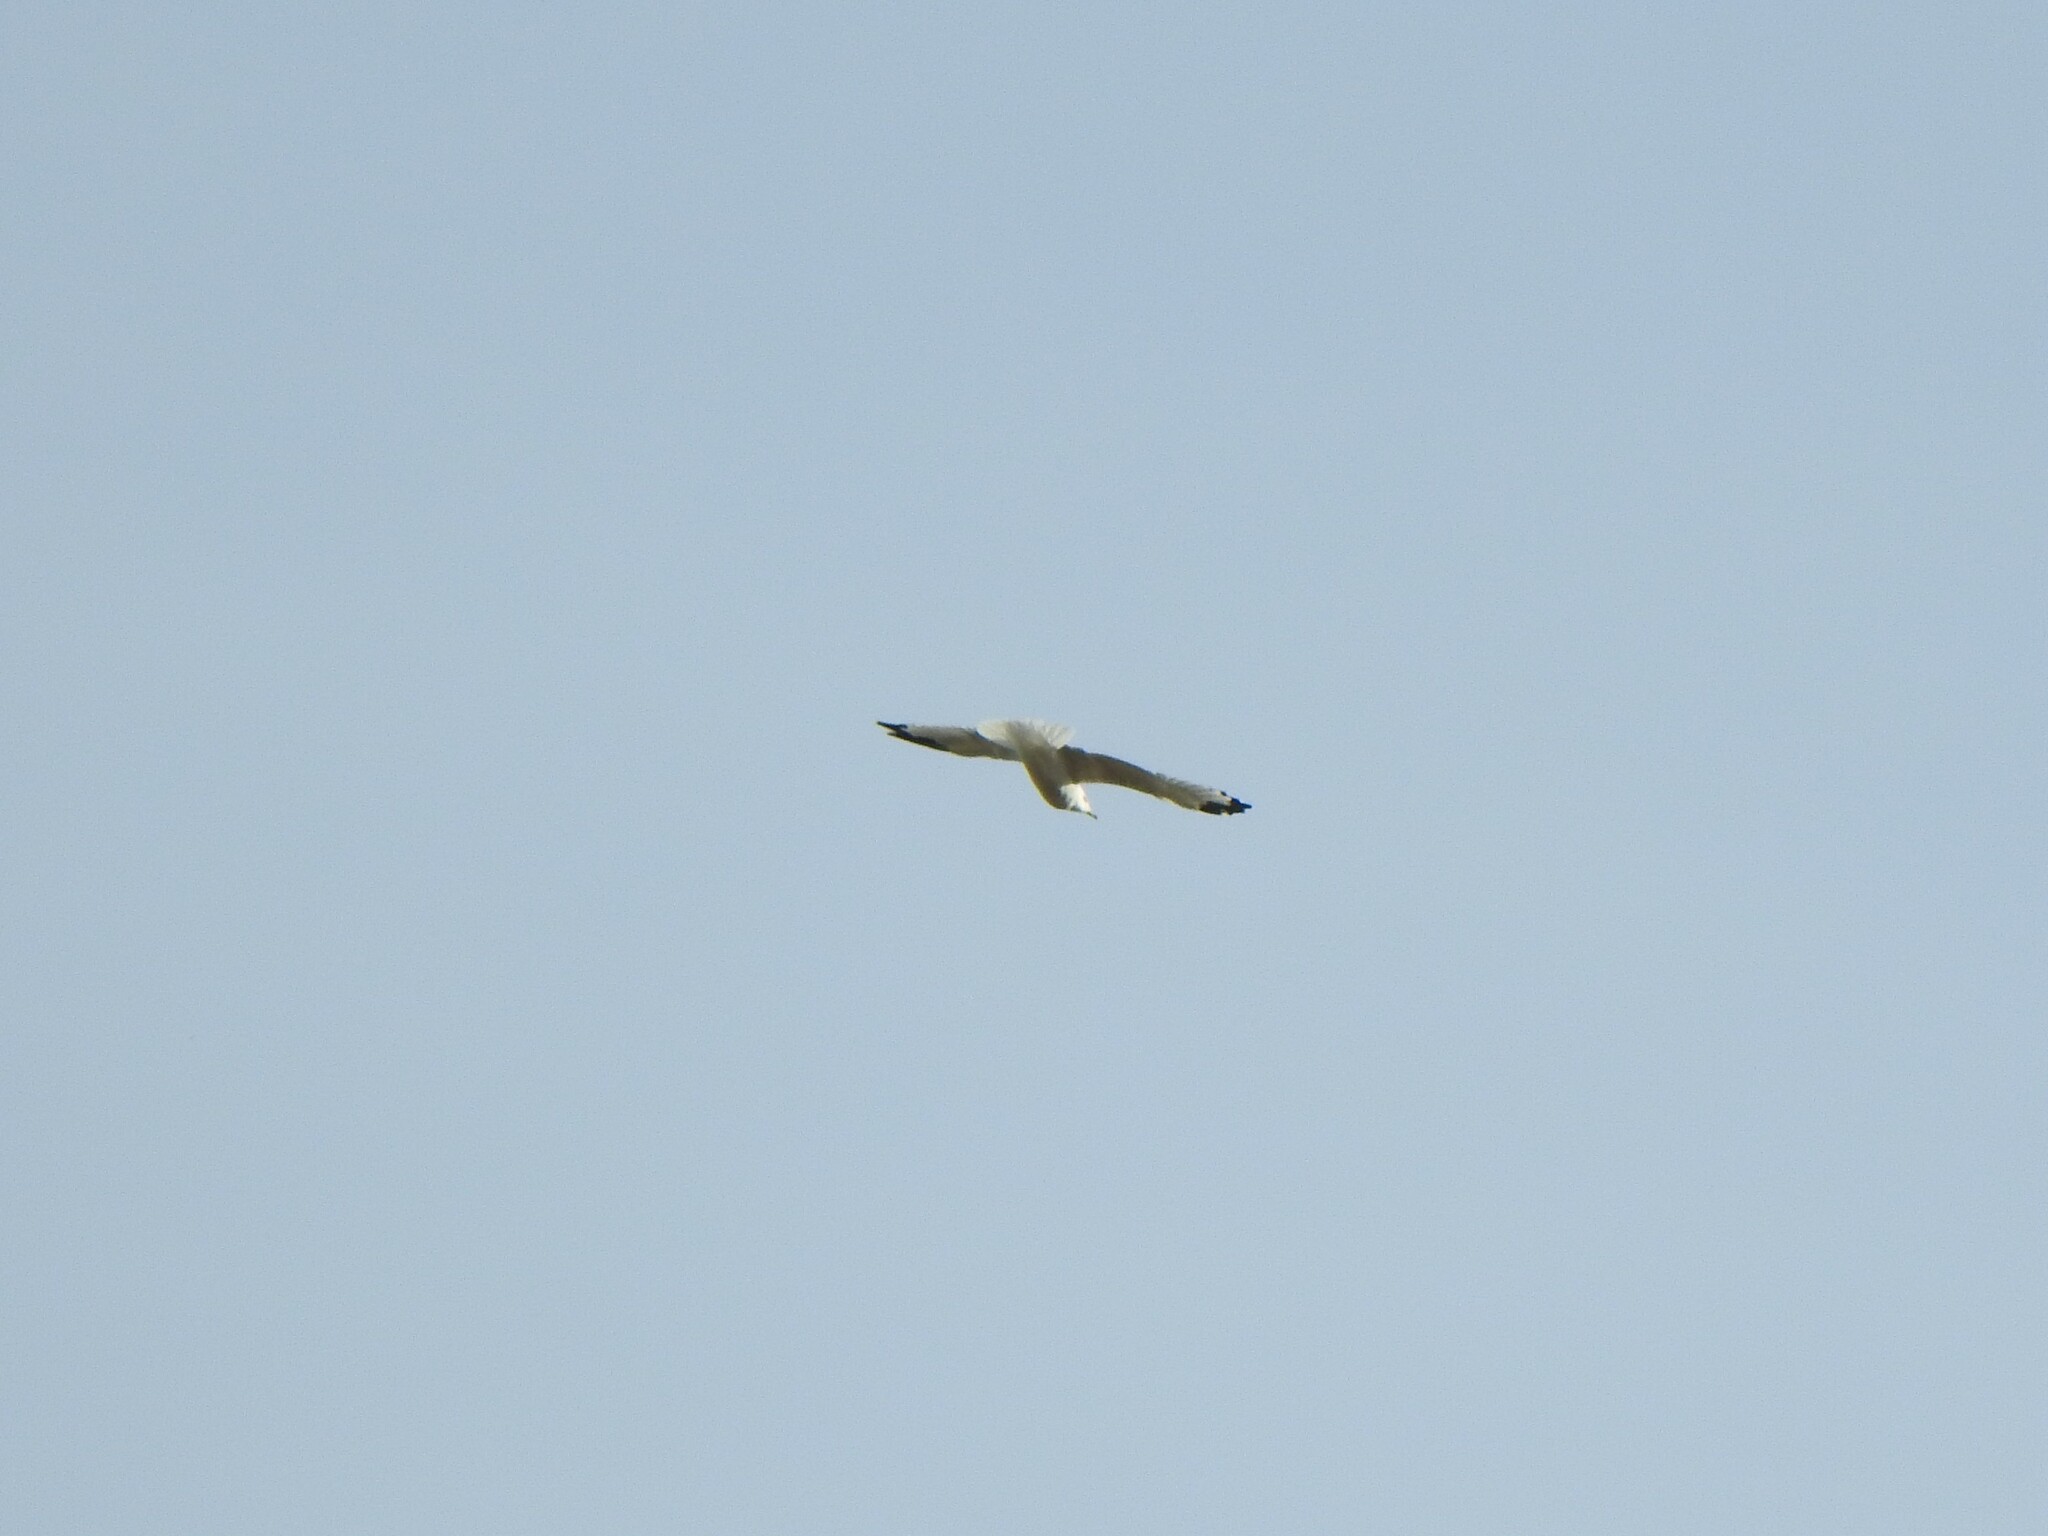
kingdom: Animalia
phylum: Chordata
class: Aves
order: Charadriiformes
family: Laridae
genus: Larus
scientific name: Larus delawarensis
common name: Ring-billed gull
